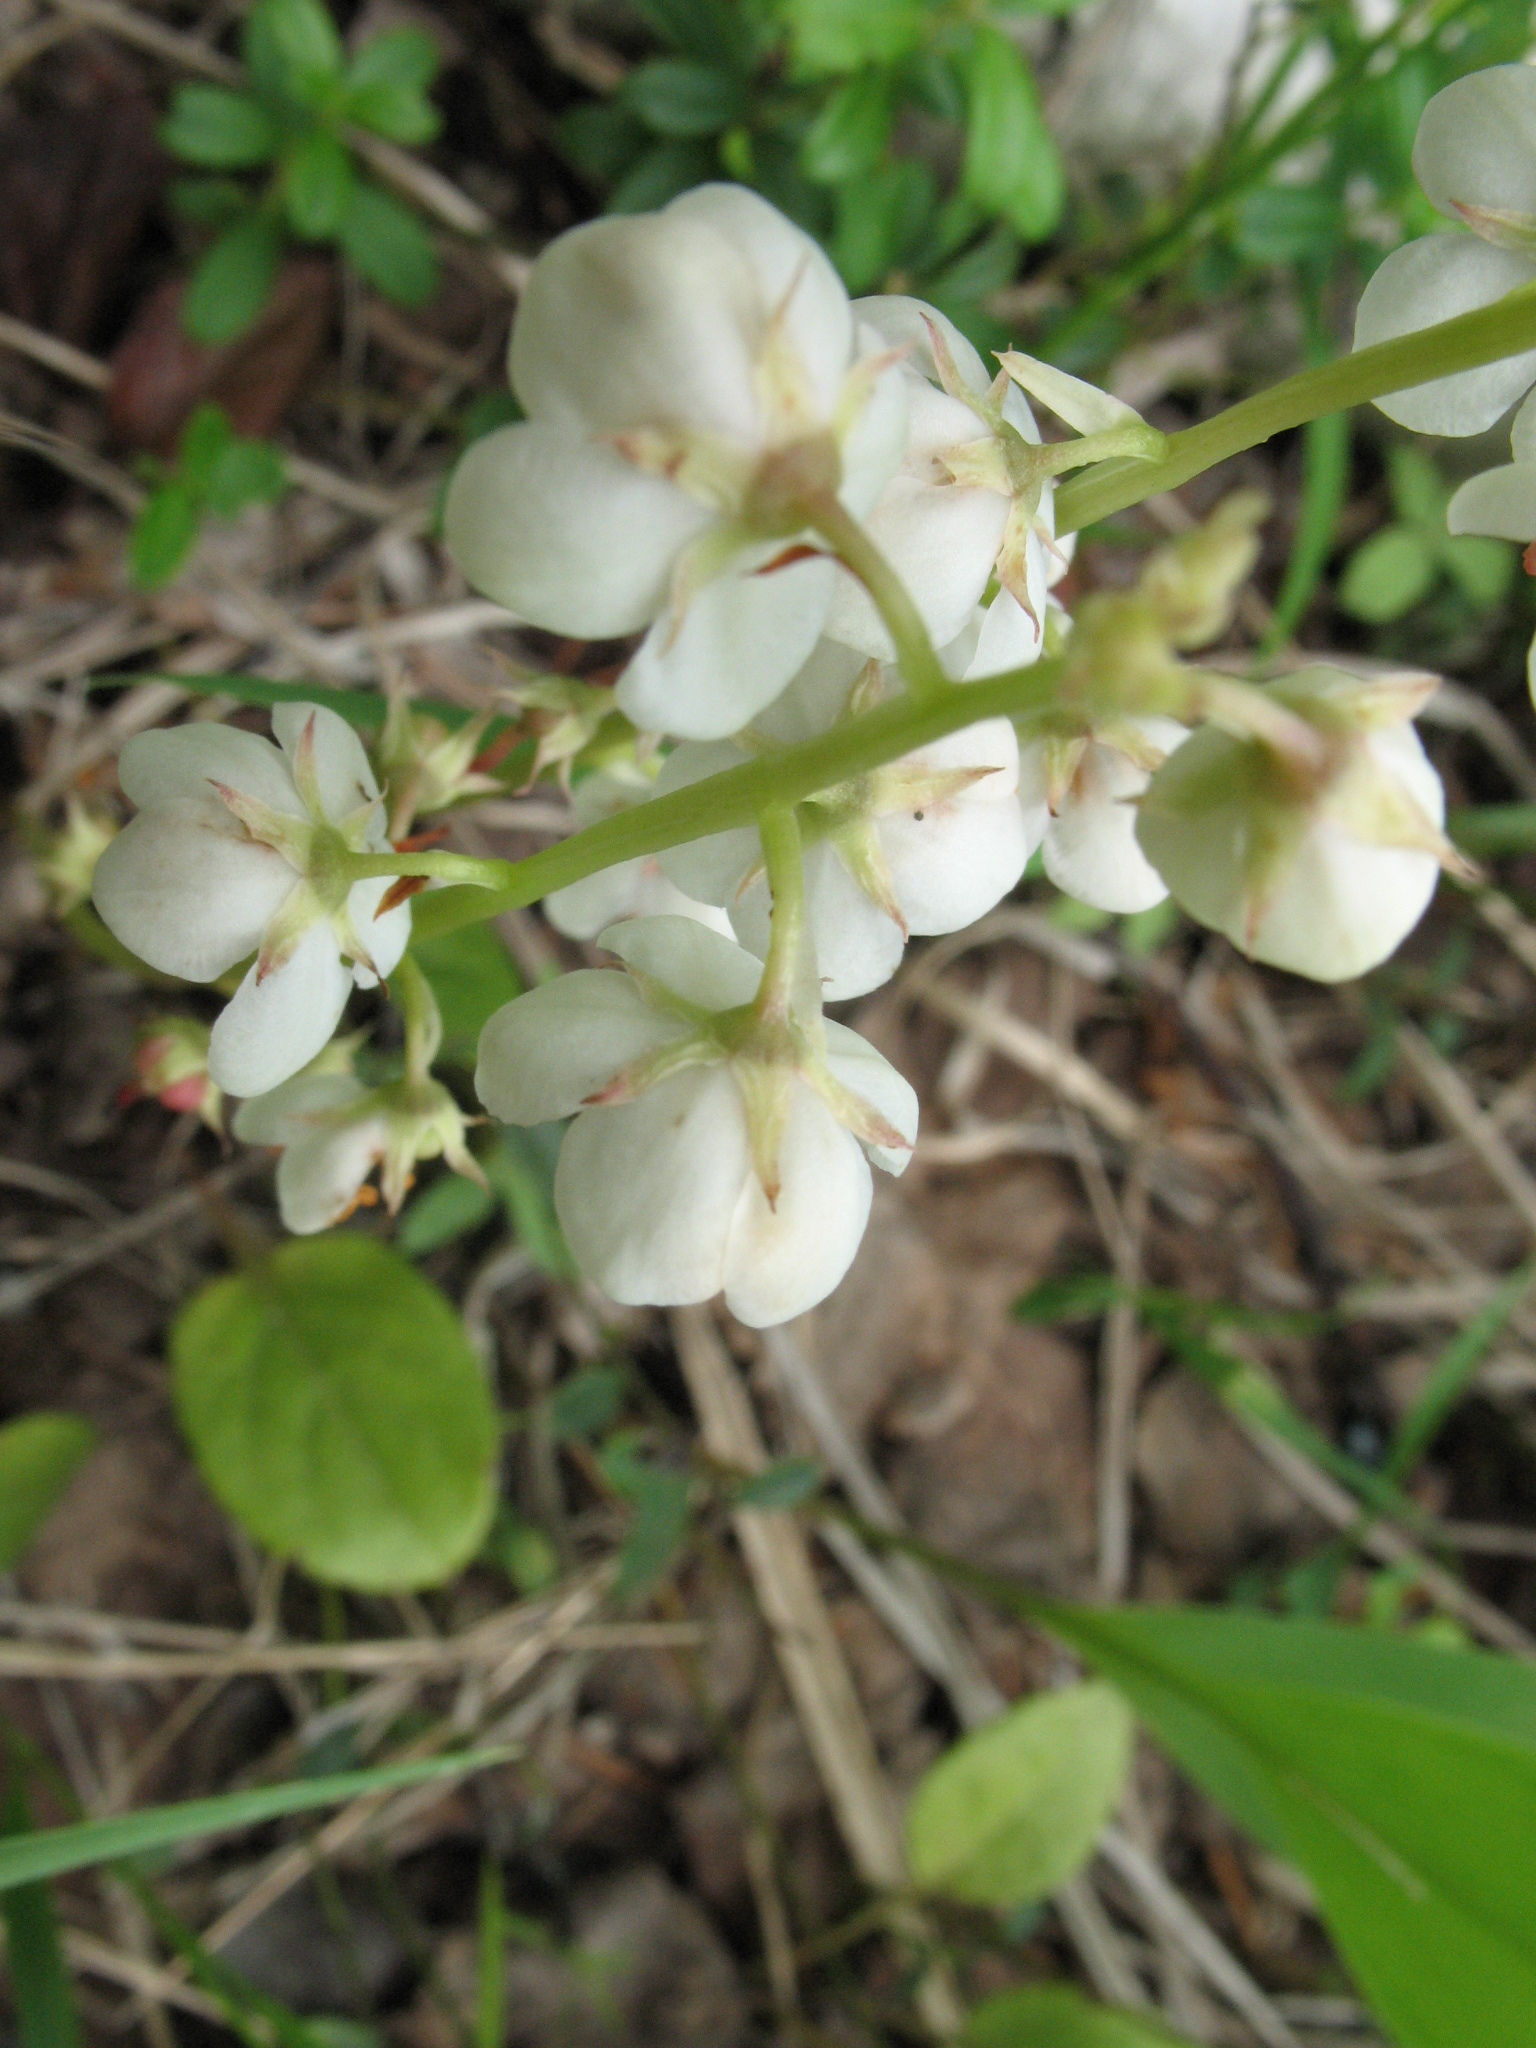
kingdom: Plantae
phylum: Tracheophyta
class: Magnoliopsida
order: Ericales
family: Ericaceae
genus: Pyrola
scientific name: Pyrola rotundifolia
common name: Round-leaved wintergreen
